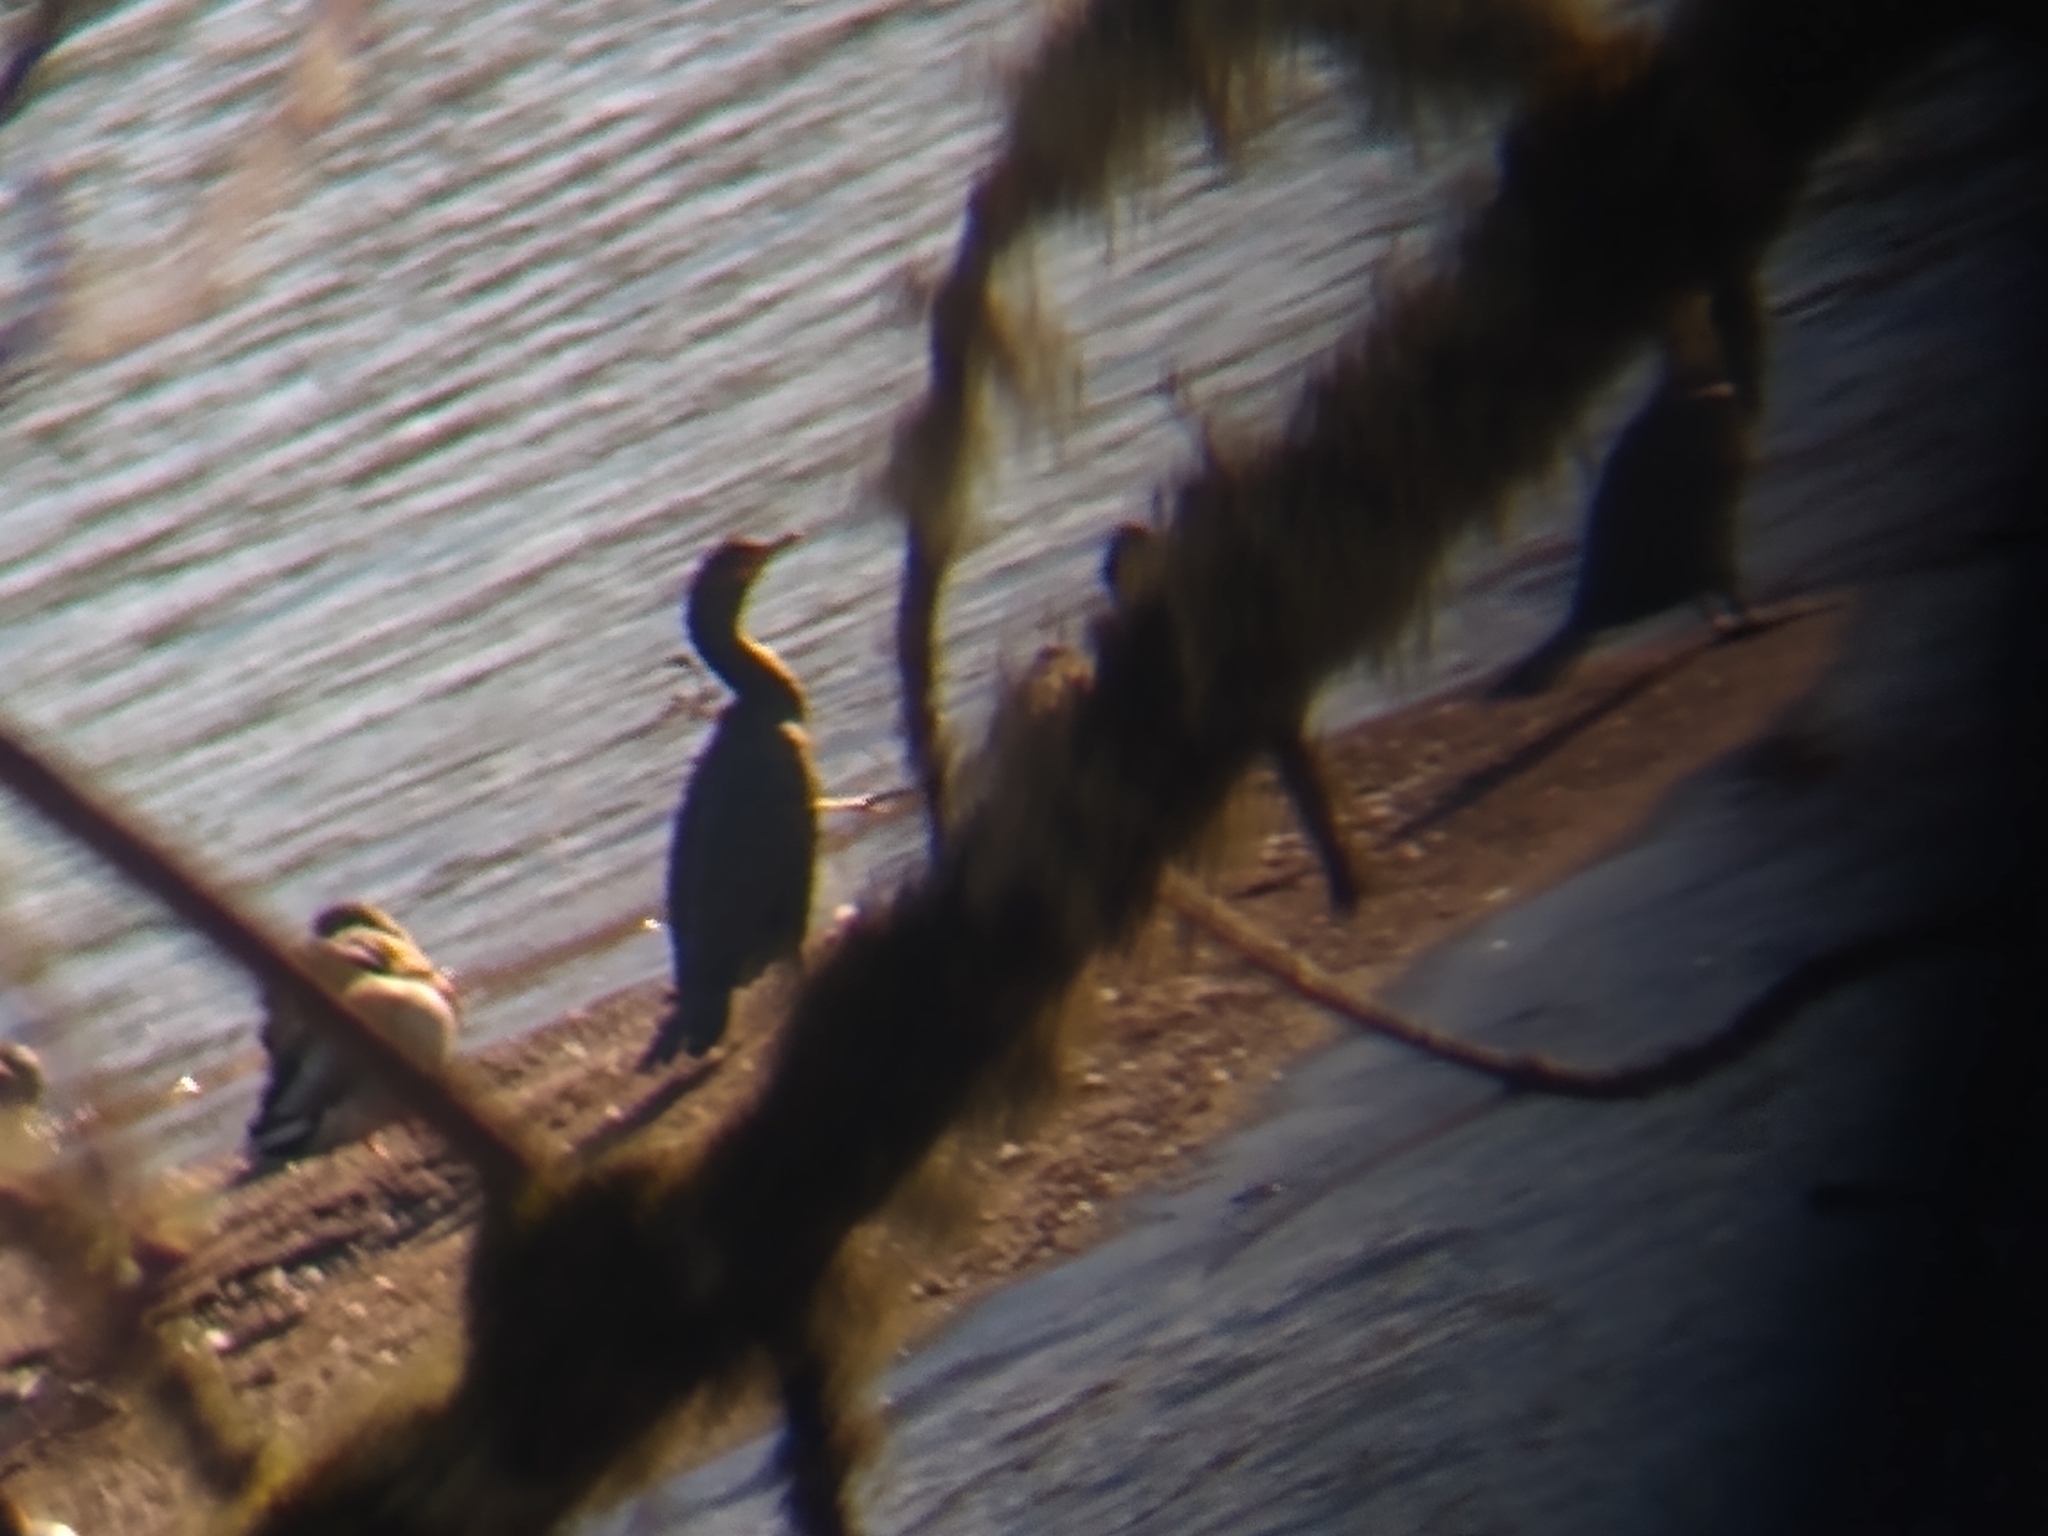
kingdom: Animalia
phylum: Chordata
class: Aves
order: Suliformes
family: Phalacrocoracidae
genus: Phalacrocorax
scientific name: Phalacrocorax auritus
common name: Double-crested cormorant
